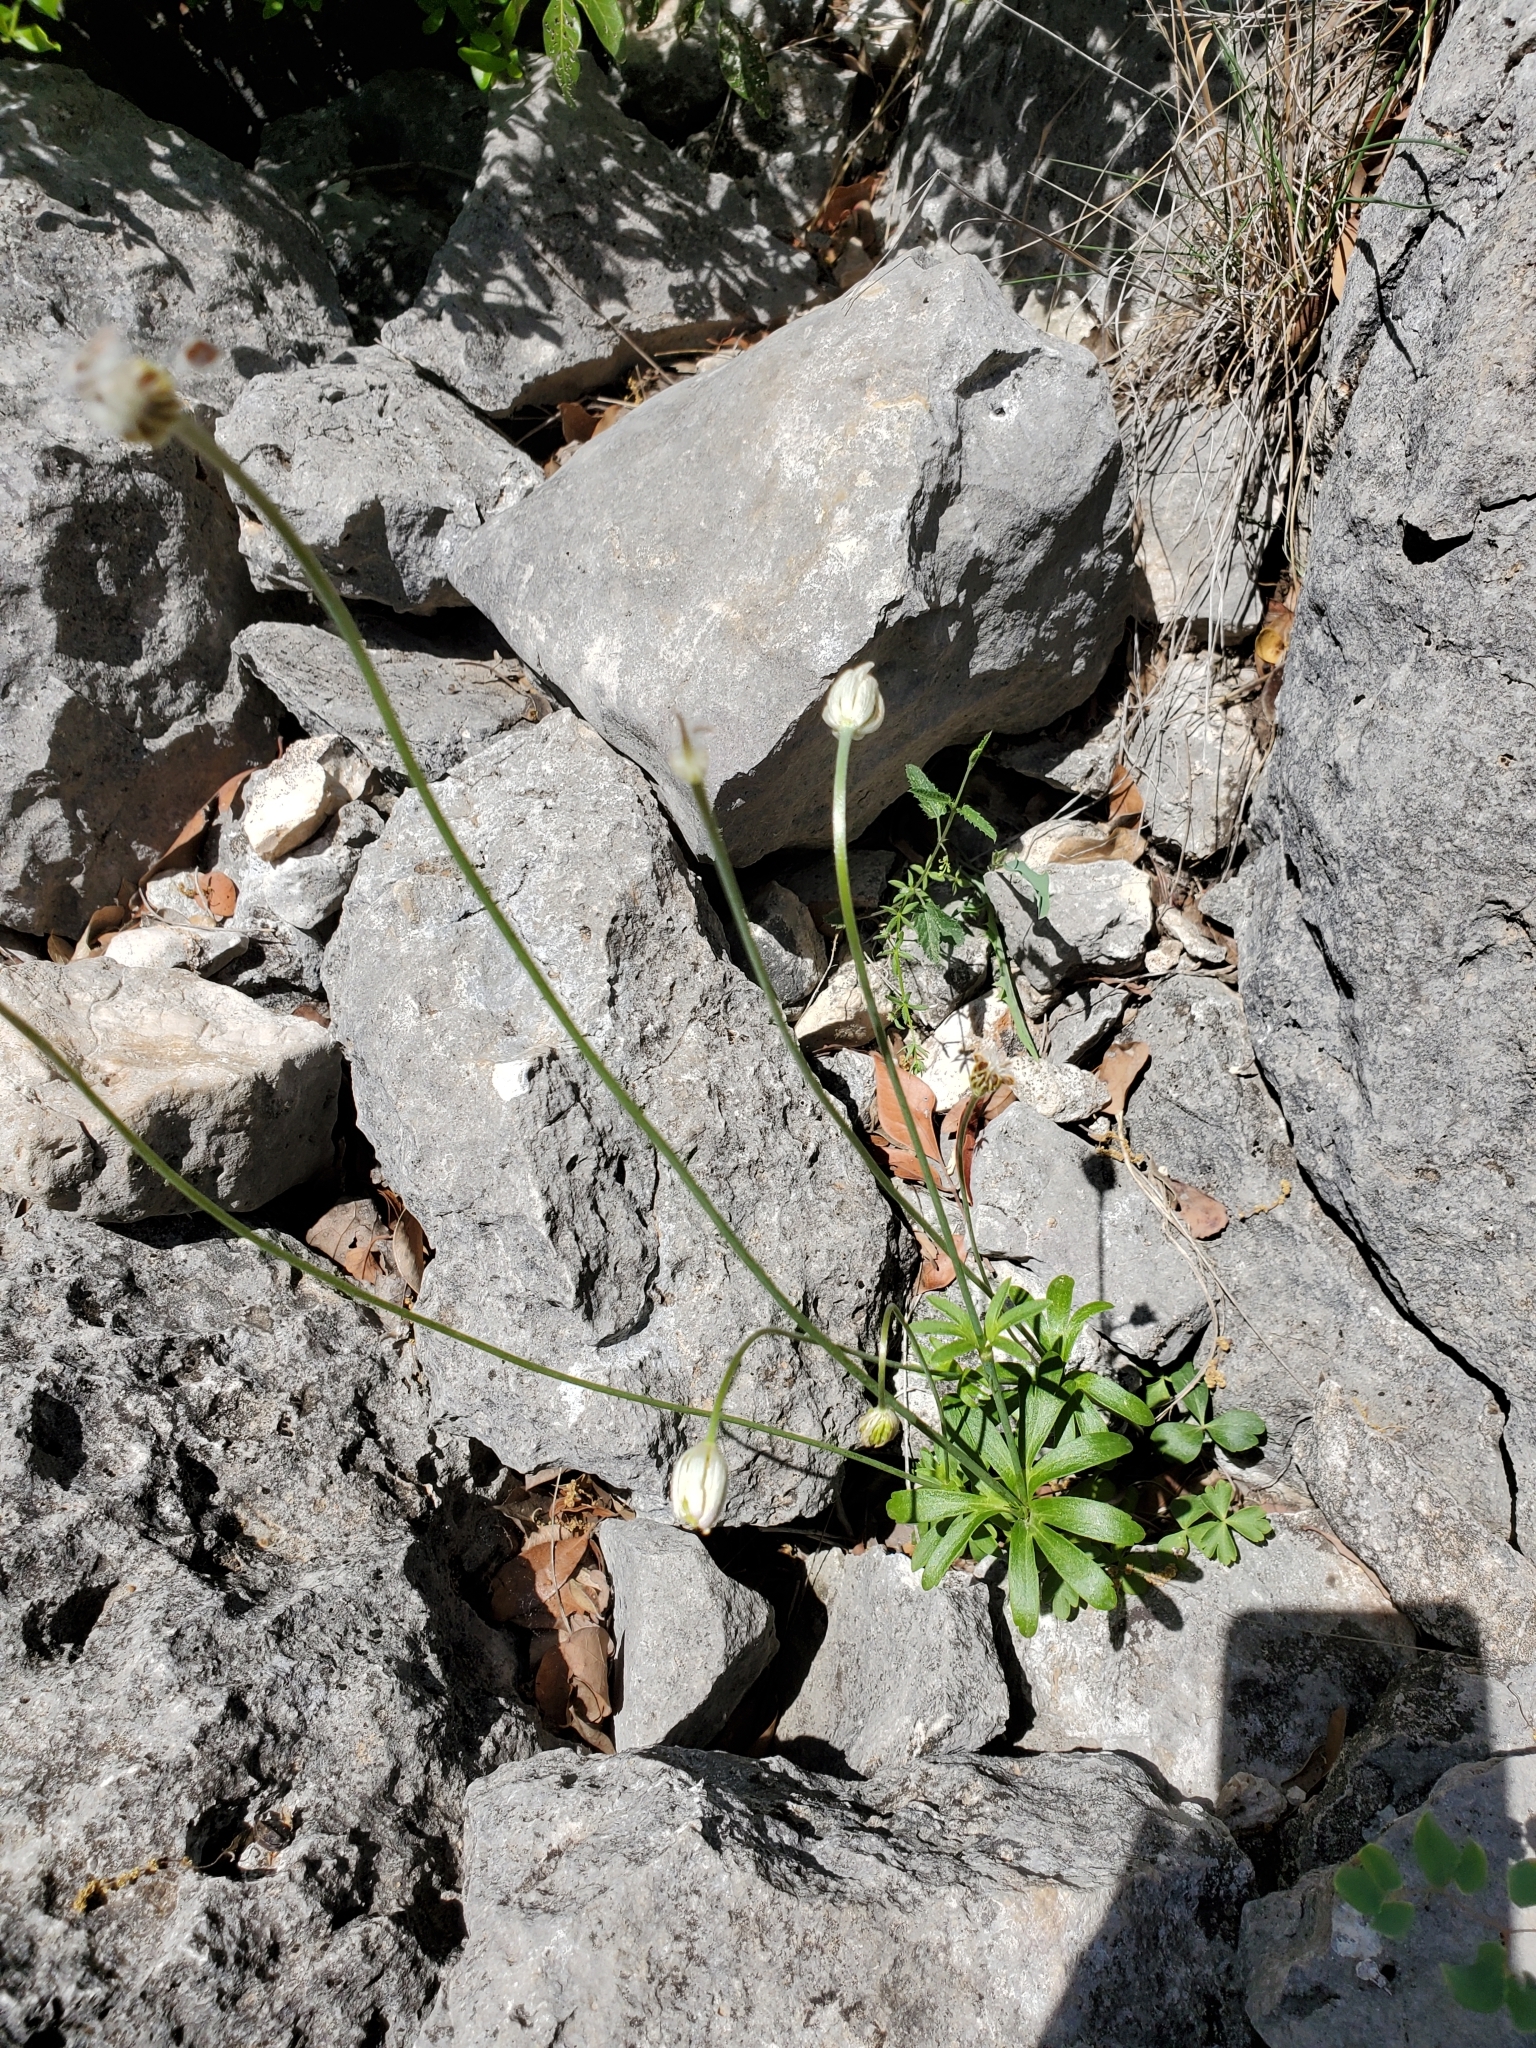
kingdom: Plantae
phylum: Tracheophyta
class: Magnoliopsida
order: Ranunculales
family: Ranunculaceae
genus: Anemone
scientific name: Anemone edwardsiana
